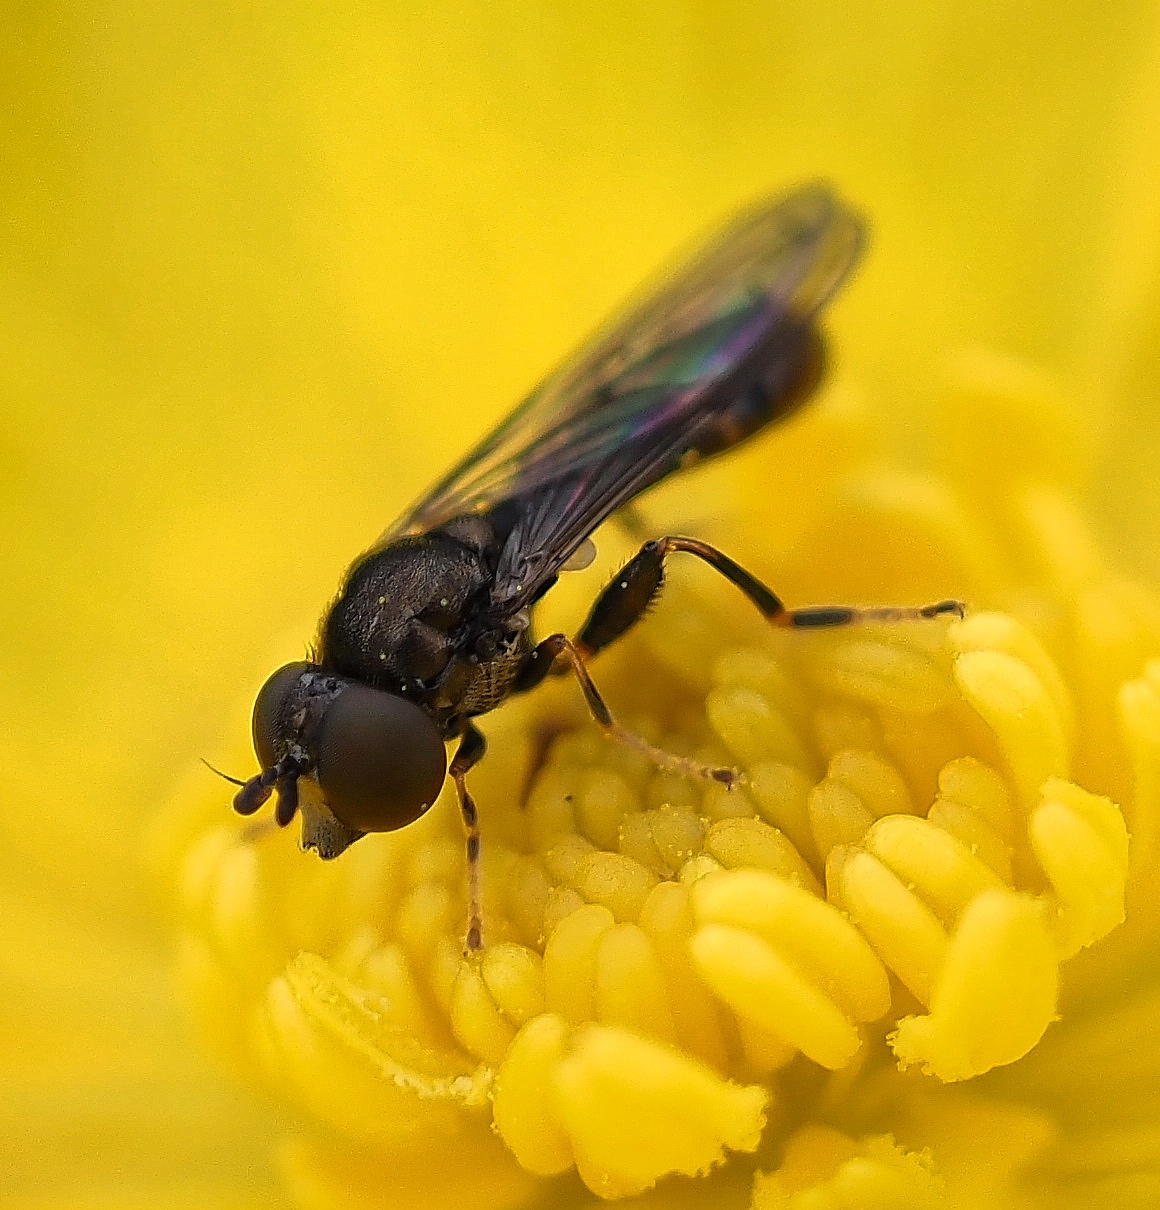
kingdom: Animalia
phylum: Arthropoda
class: Insecta
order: Diptera
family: Syrphidae
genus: Neoascia
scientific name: Neoascia
